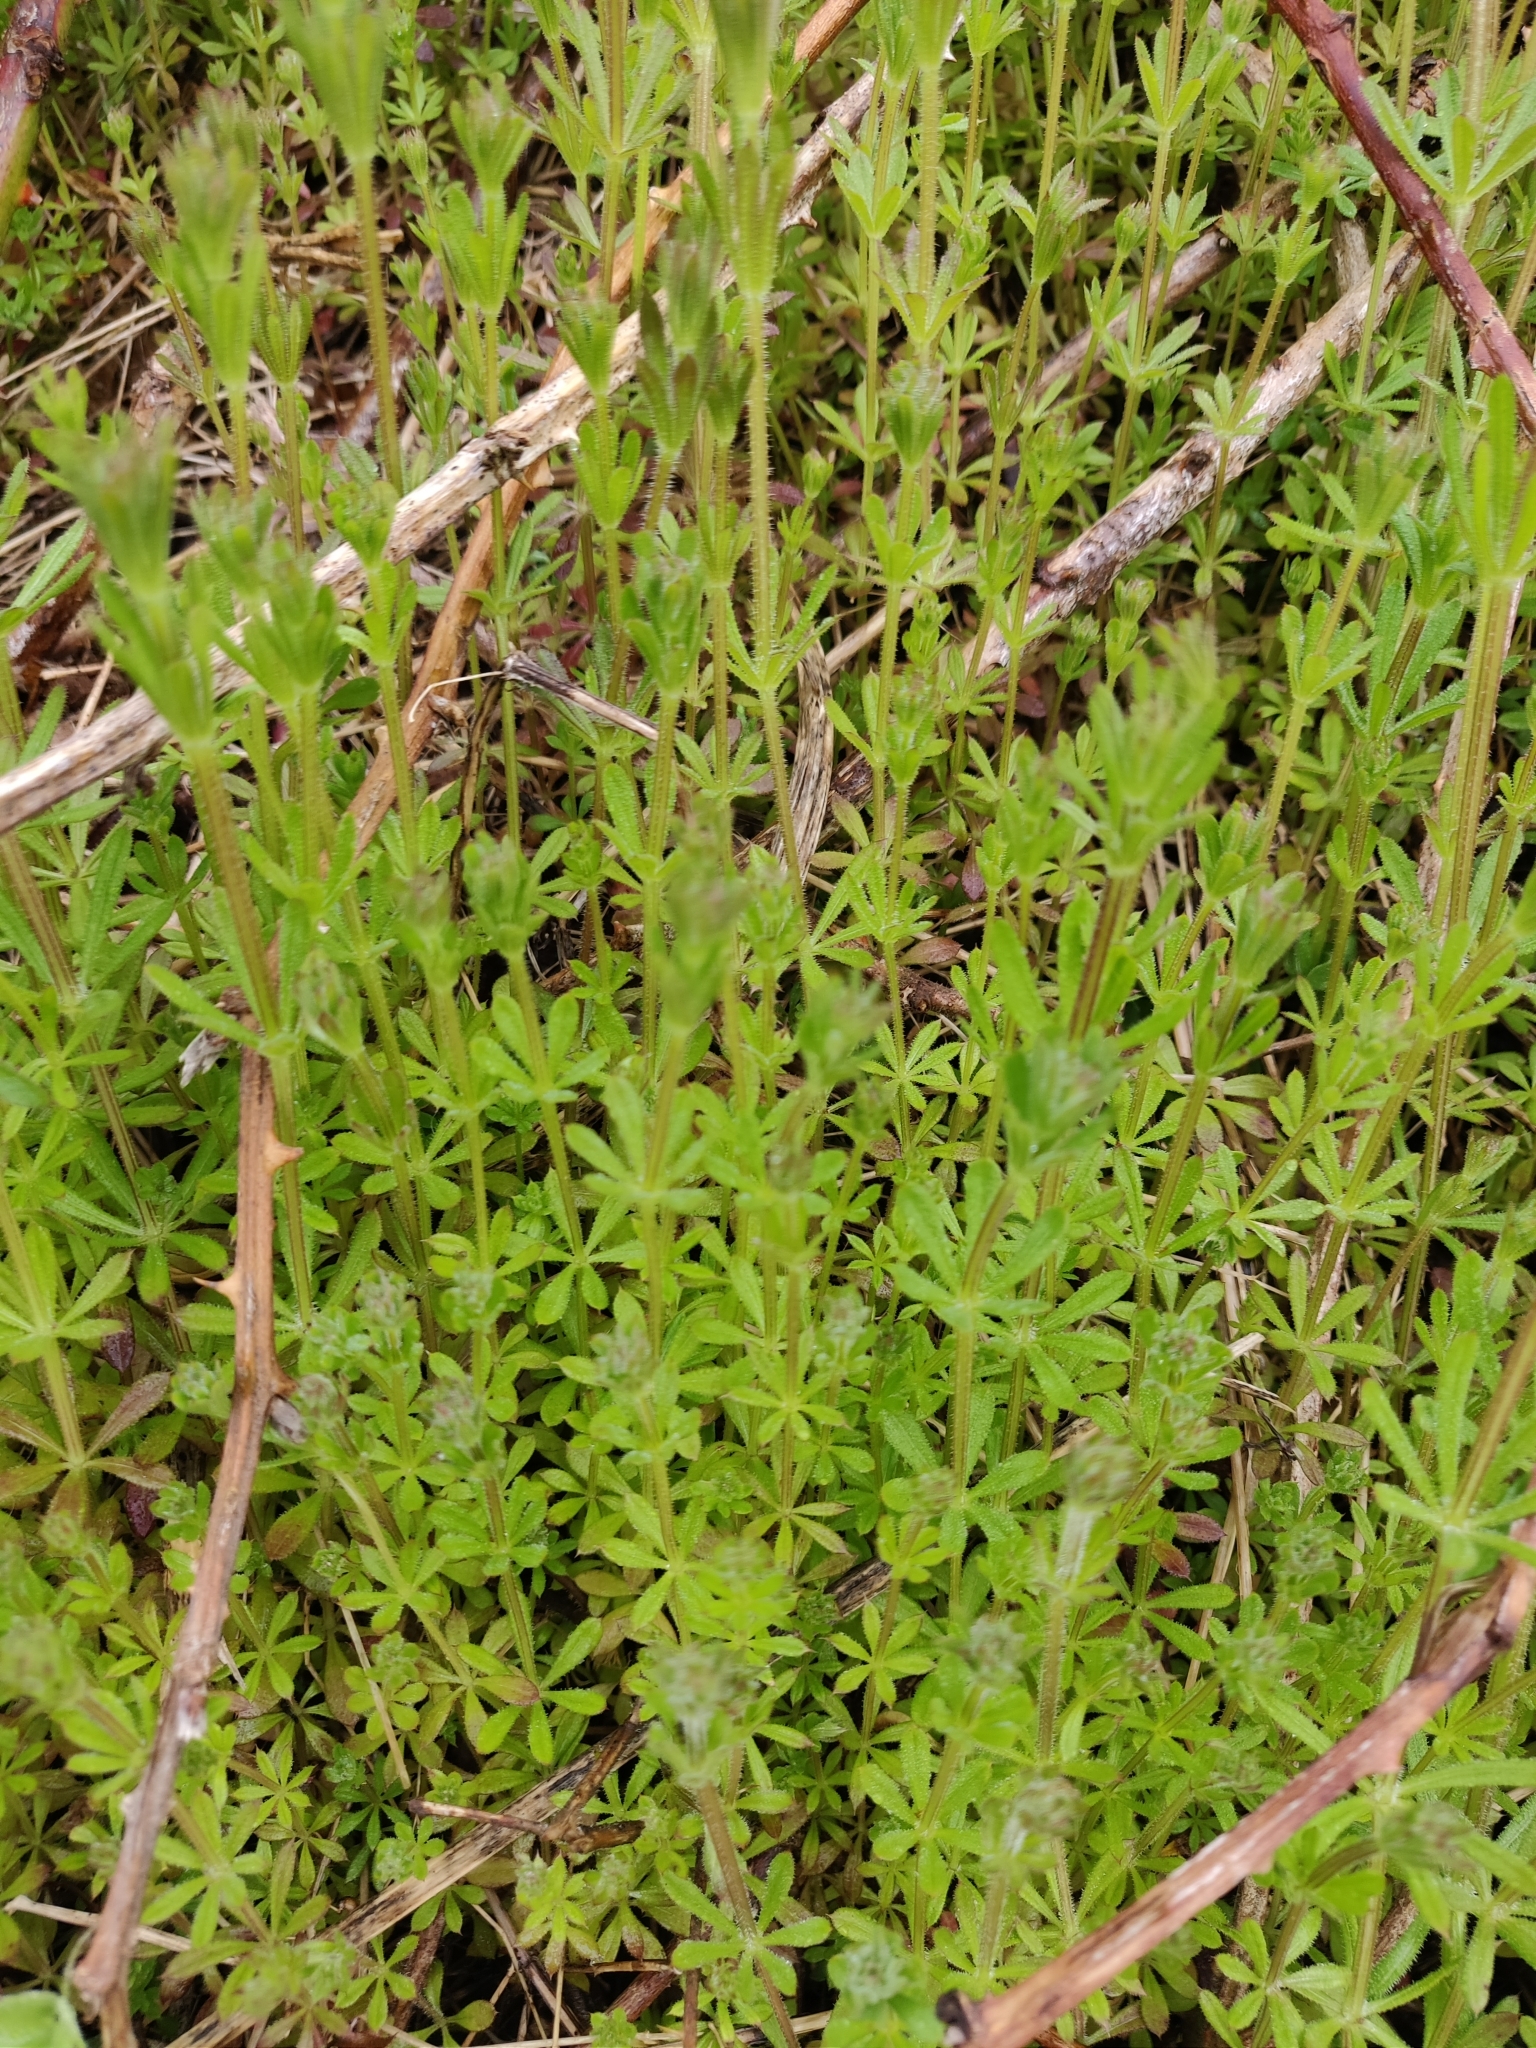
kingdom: Plantae
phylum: Tracheophyta
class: Magnoliopsida
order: Gentianales
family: Rubiaceae
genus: Galium
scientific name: Galium aparine
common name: Cleavers
